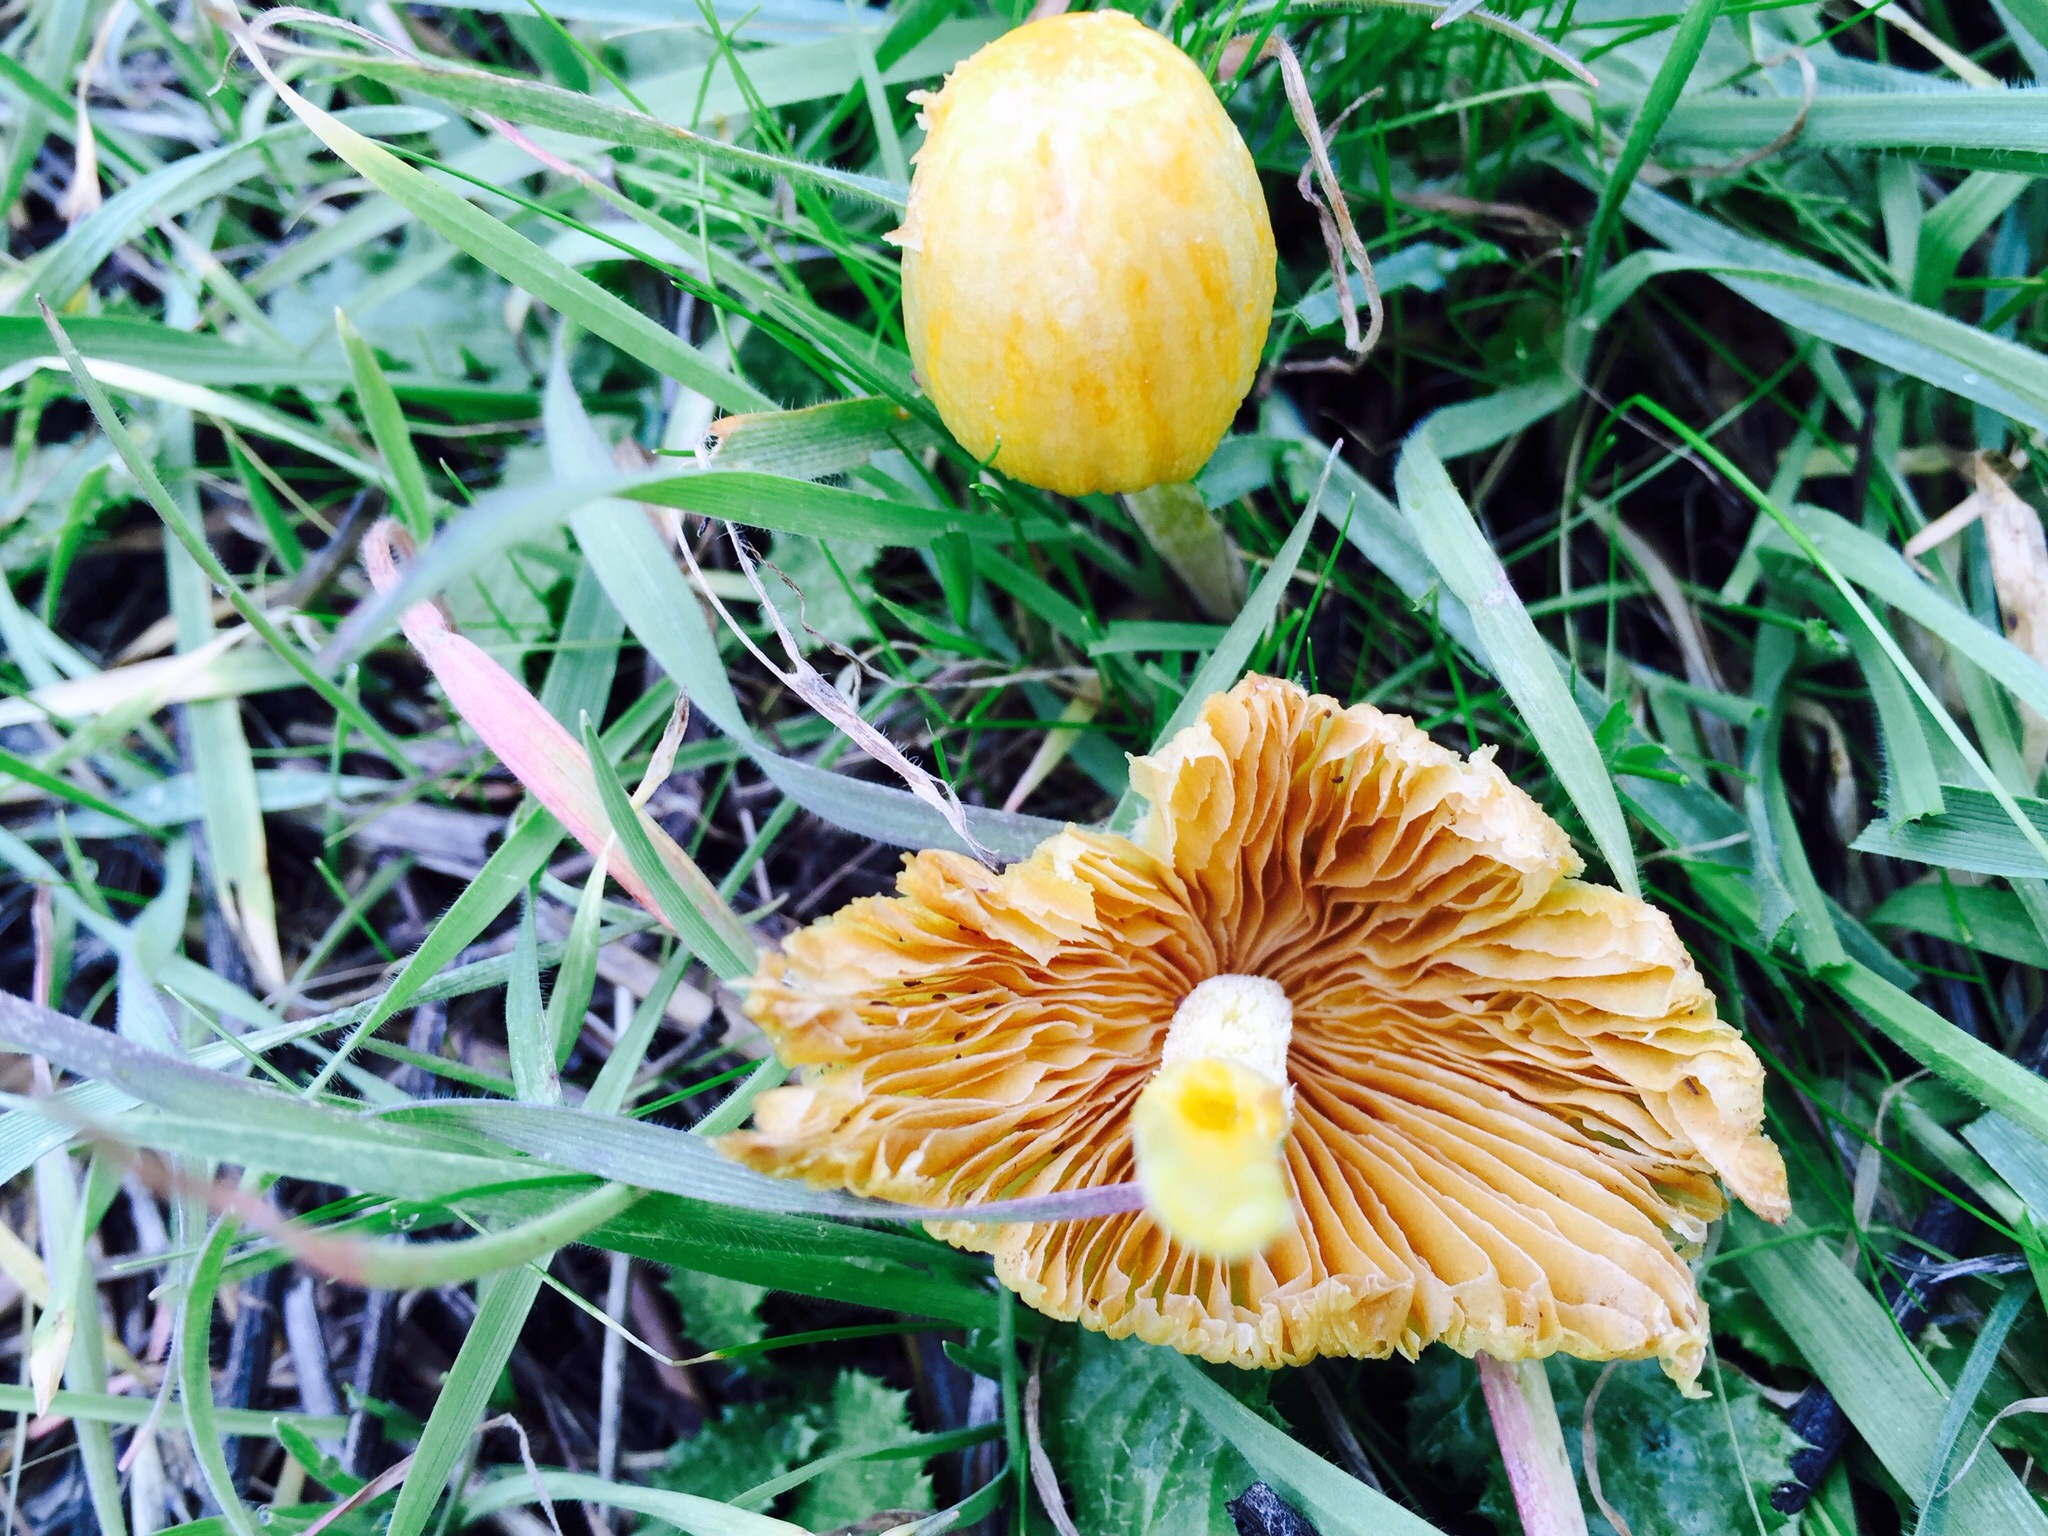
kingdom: Fungi
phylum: Basidiomycota
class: Agaricomycetes
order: Agaricales
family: Bolbitiaceae
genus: Bolbitius
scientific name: Bolbitius titubans
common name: Yellow fieldcap
